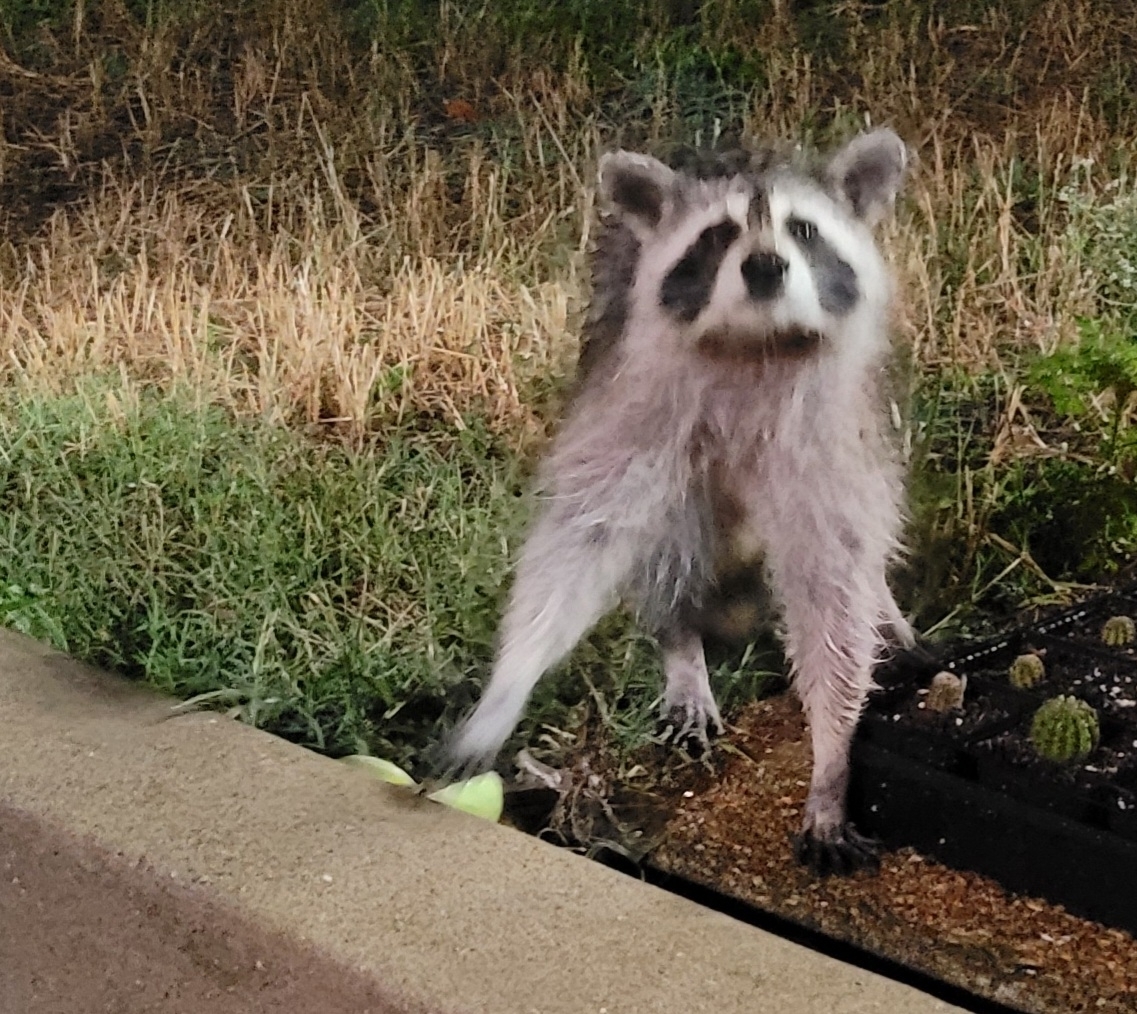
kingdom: Animalia
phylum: Chordata
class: Mammalia
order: Carnivora
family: Procyonidae
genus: Procyon
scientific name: Procyon lotor
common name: Raccoon
